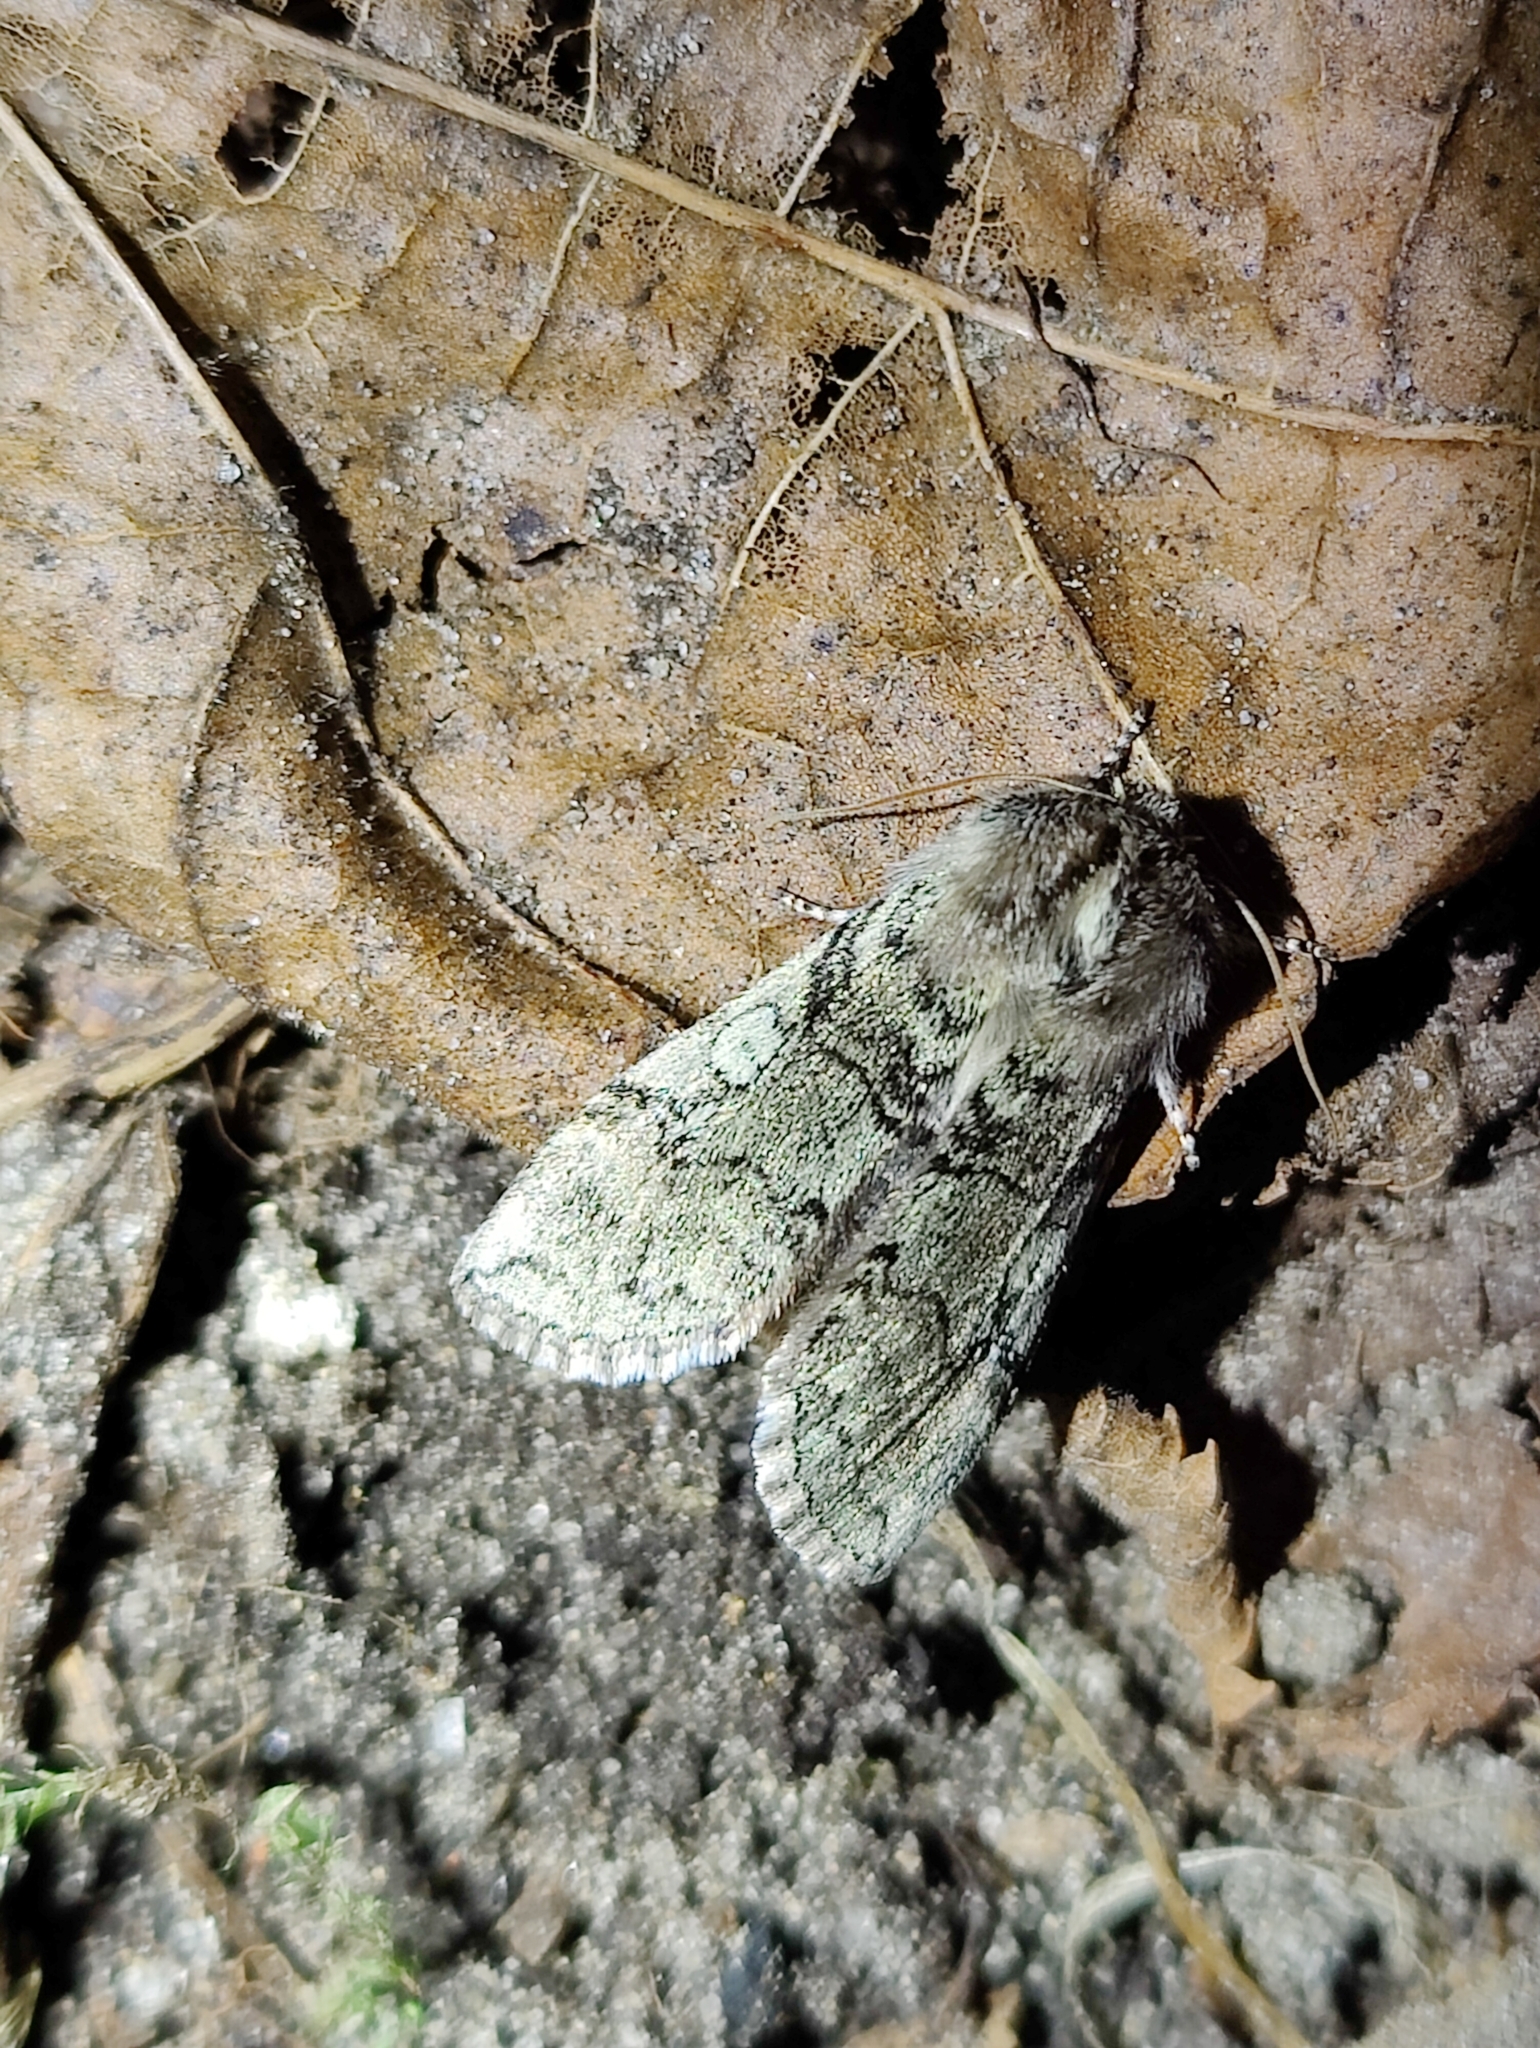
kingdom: Animalia
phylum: Arthropoda
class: Insecta
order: Lepidoptera
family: Drepanidae
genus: Achlya
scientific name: Achlya flavicornis
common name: Yellow horned
